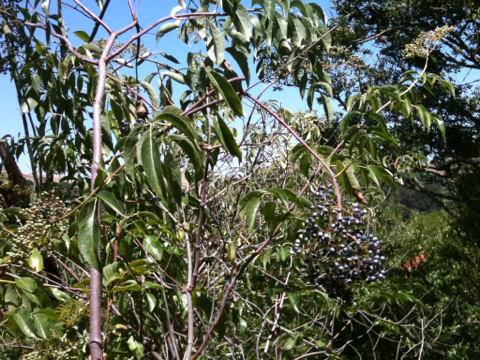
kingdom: Plantae
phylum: Tracheophyta
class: Magnoliopsida
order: Dipsacales
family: Viburnaceae
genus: Sambucus
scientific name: Sambucus cerulea
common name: Blue elder
